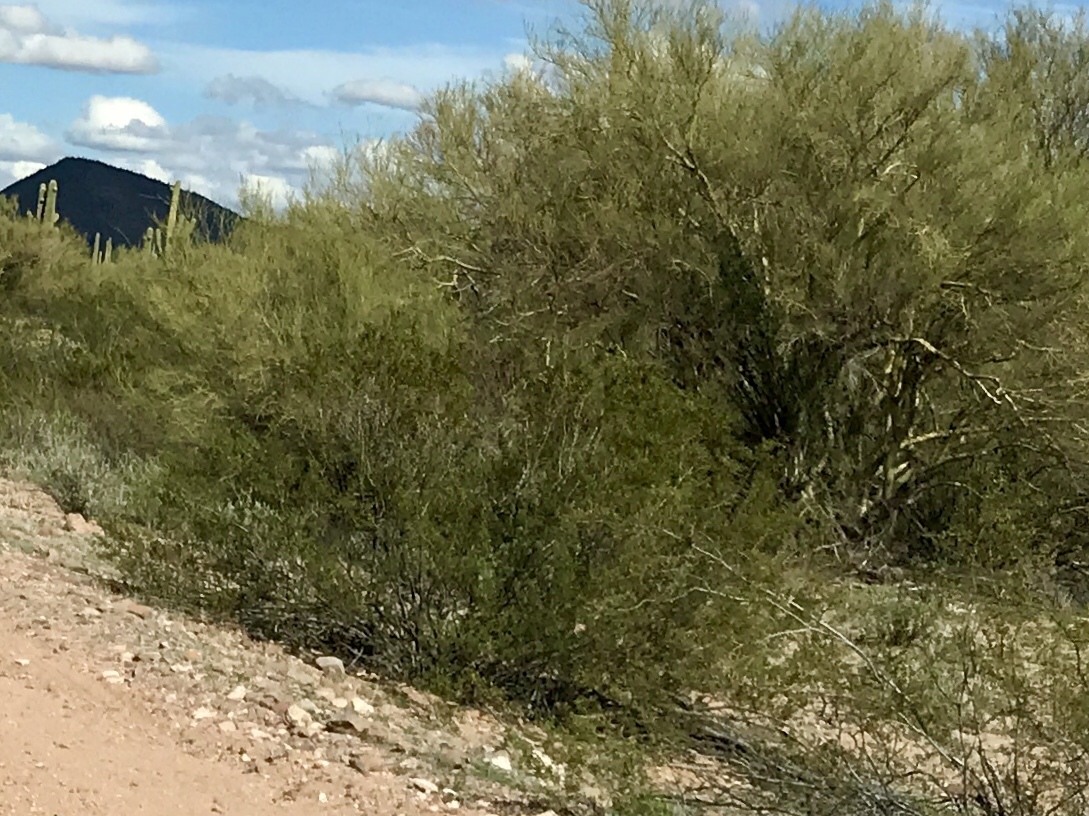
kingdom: Plantae
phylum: Tracheophyta
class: Magnoliopsida
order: Zygophyllales
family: Zygophyllaceae
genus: Larrea
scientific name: Larrea tridentata
